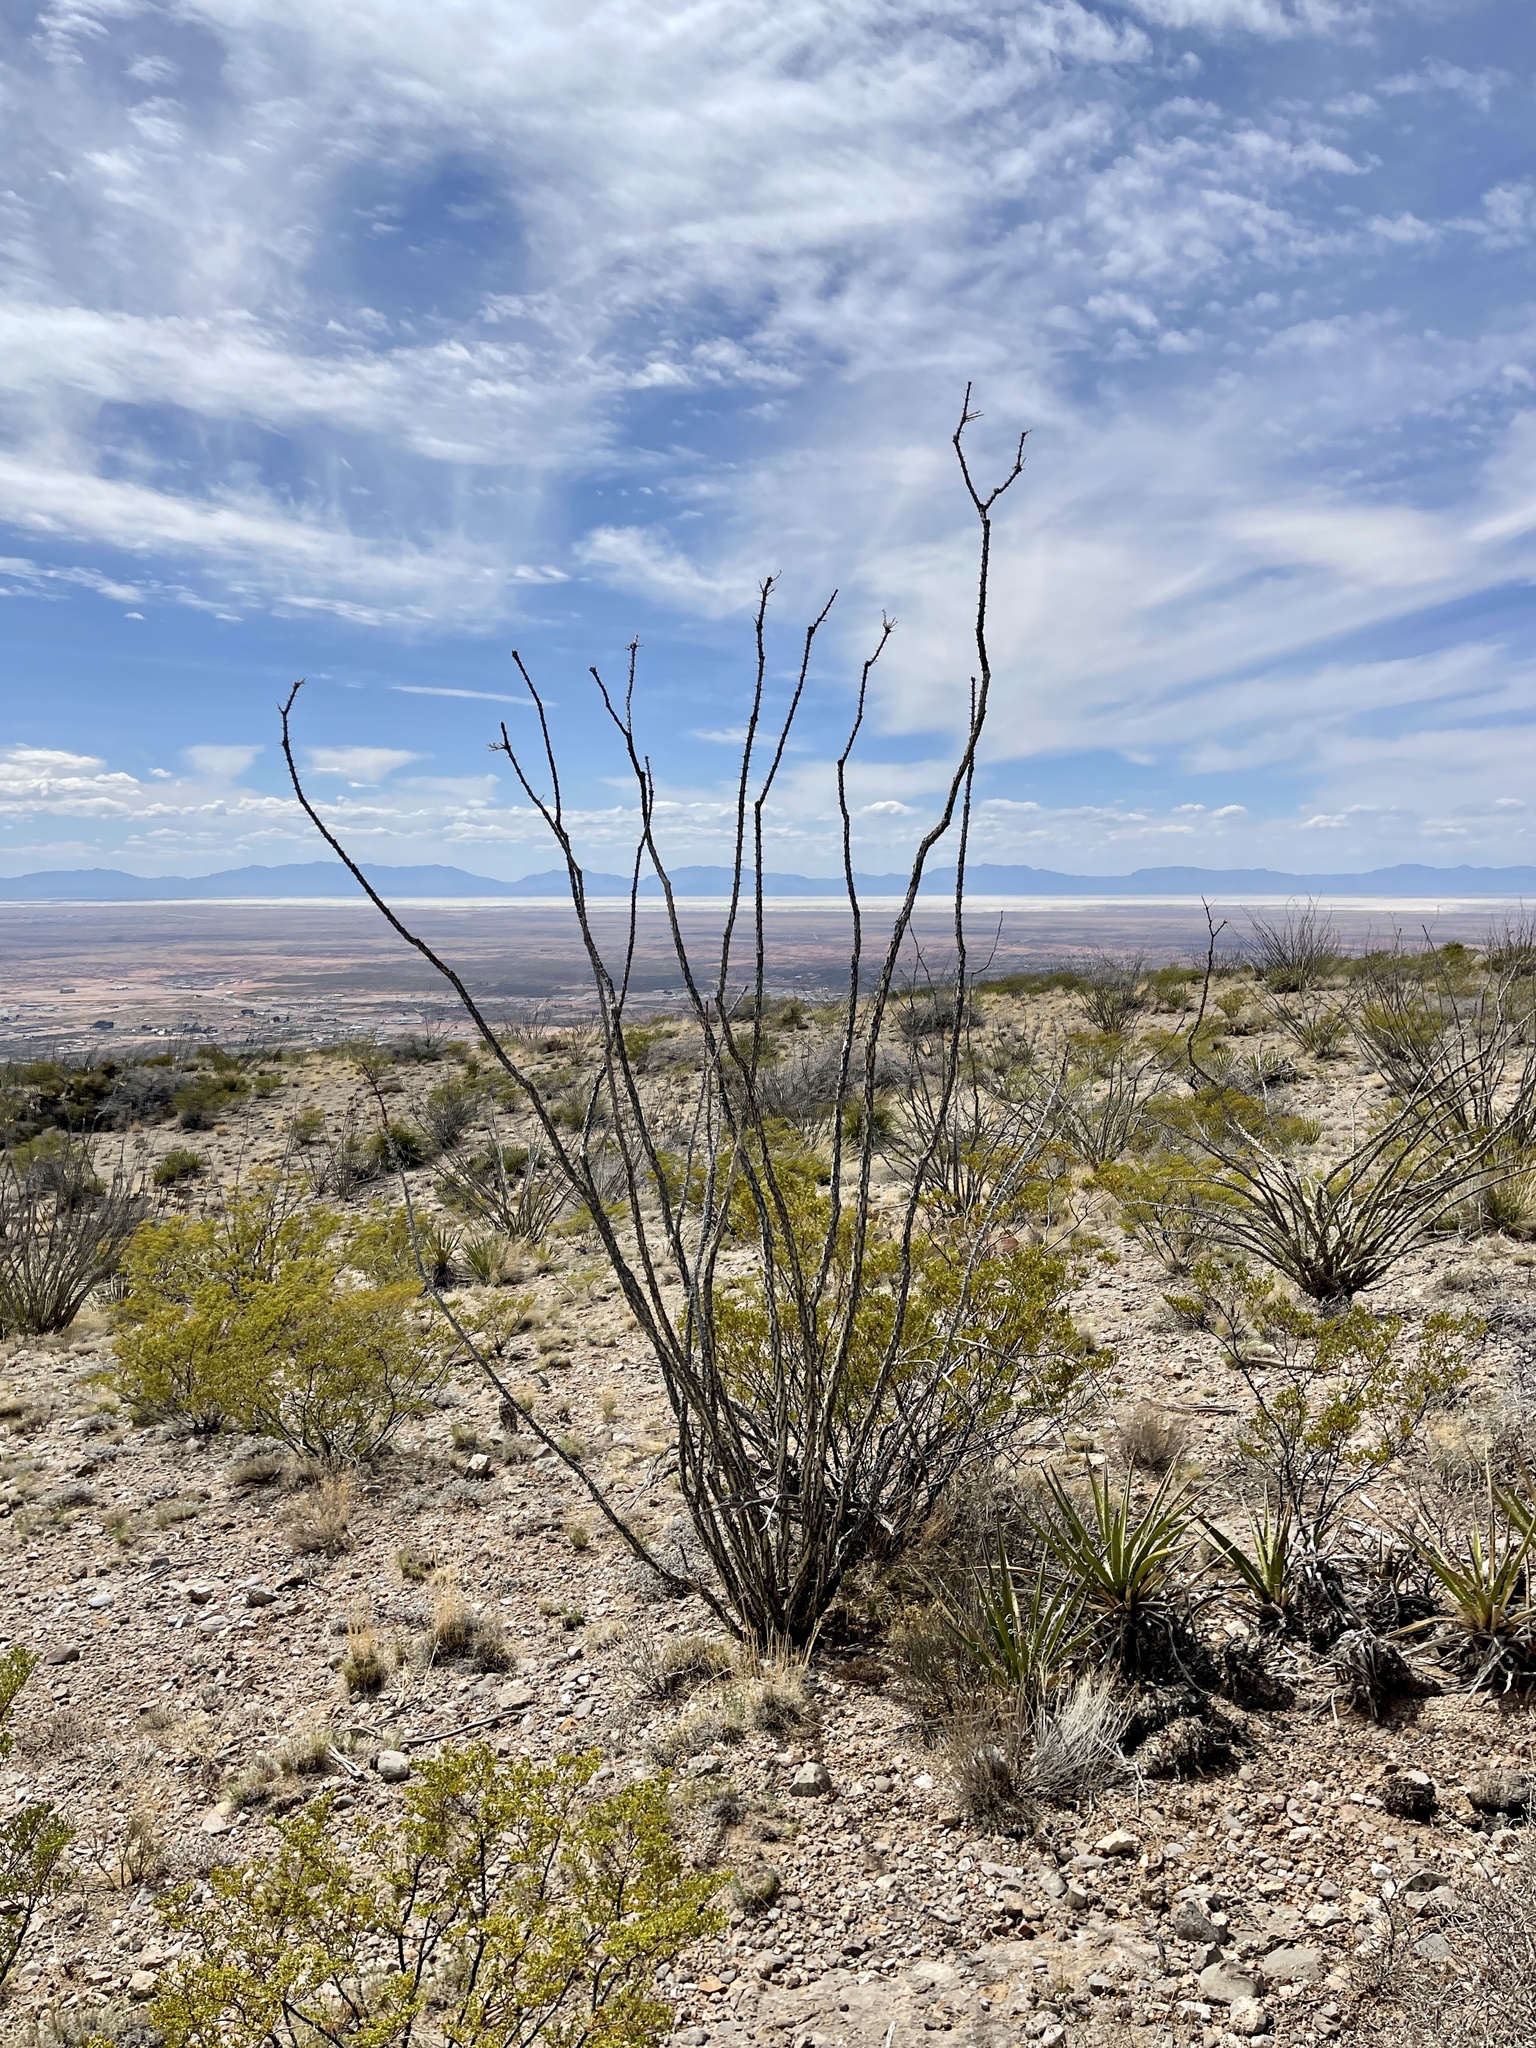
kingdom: Plantae
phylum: Tracheophyta
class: Magnoliopsida
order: Ericales
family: Fouquieriaceae
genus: Fouquieria
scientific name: Fouquieria splendens
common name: Vine-cactus
